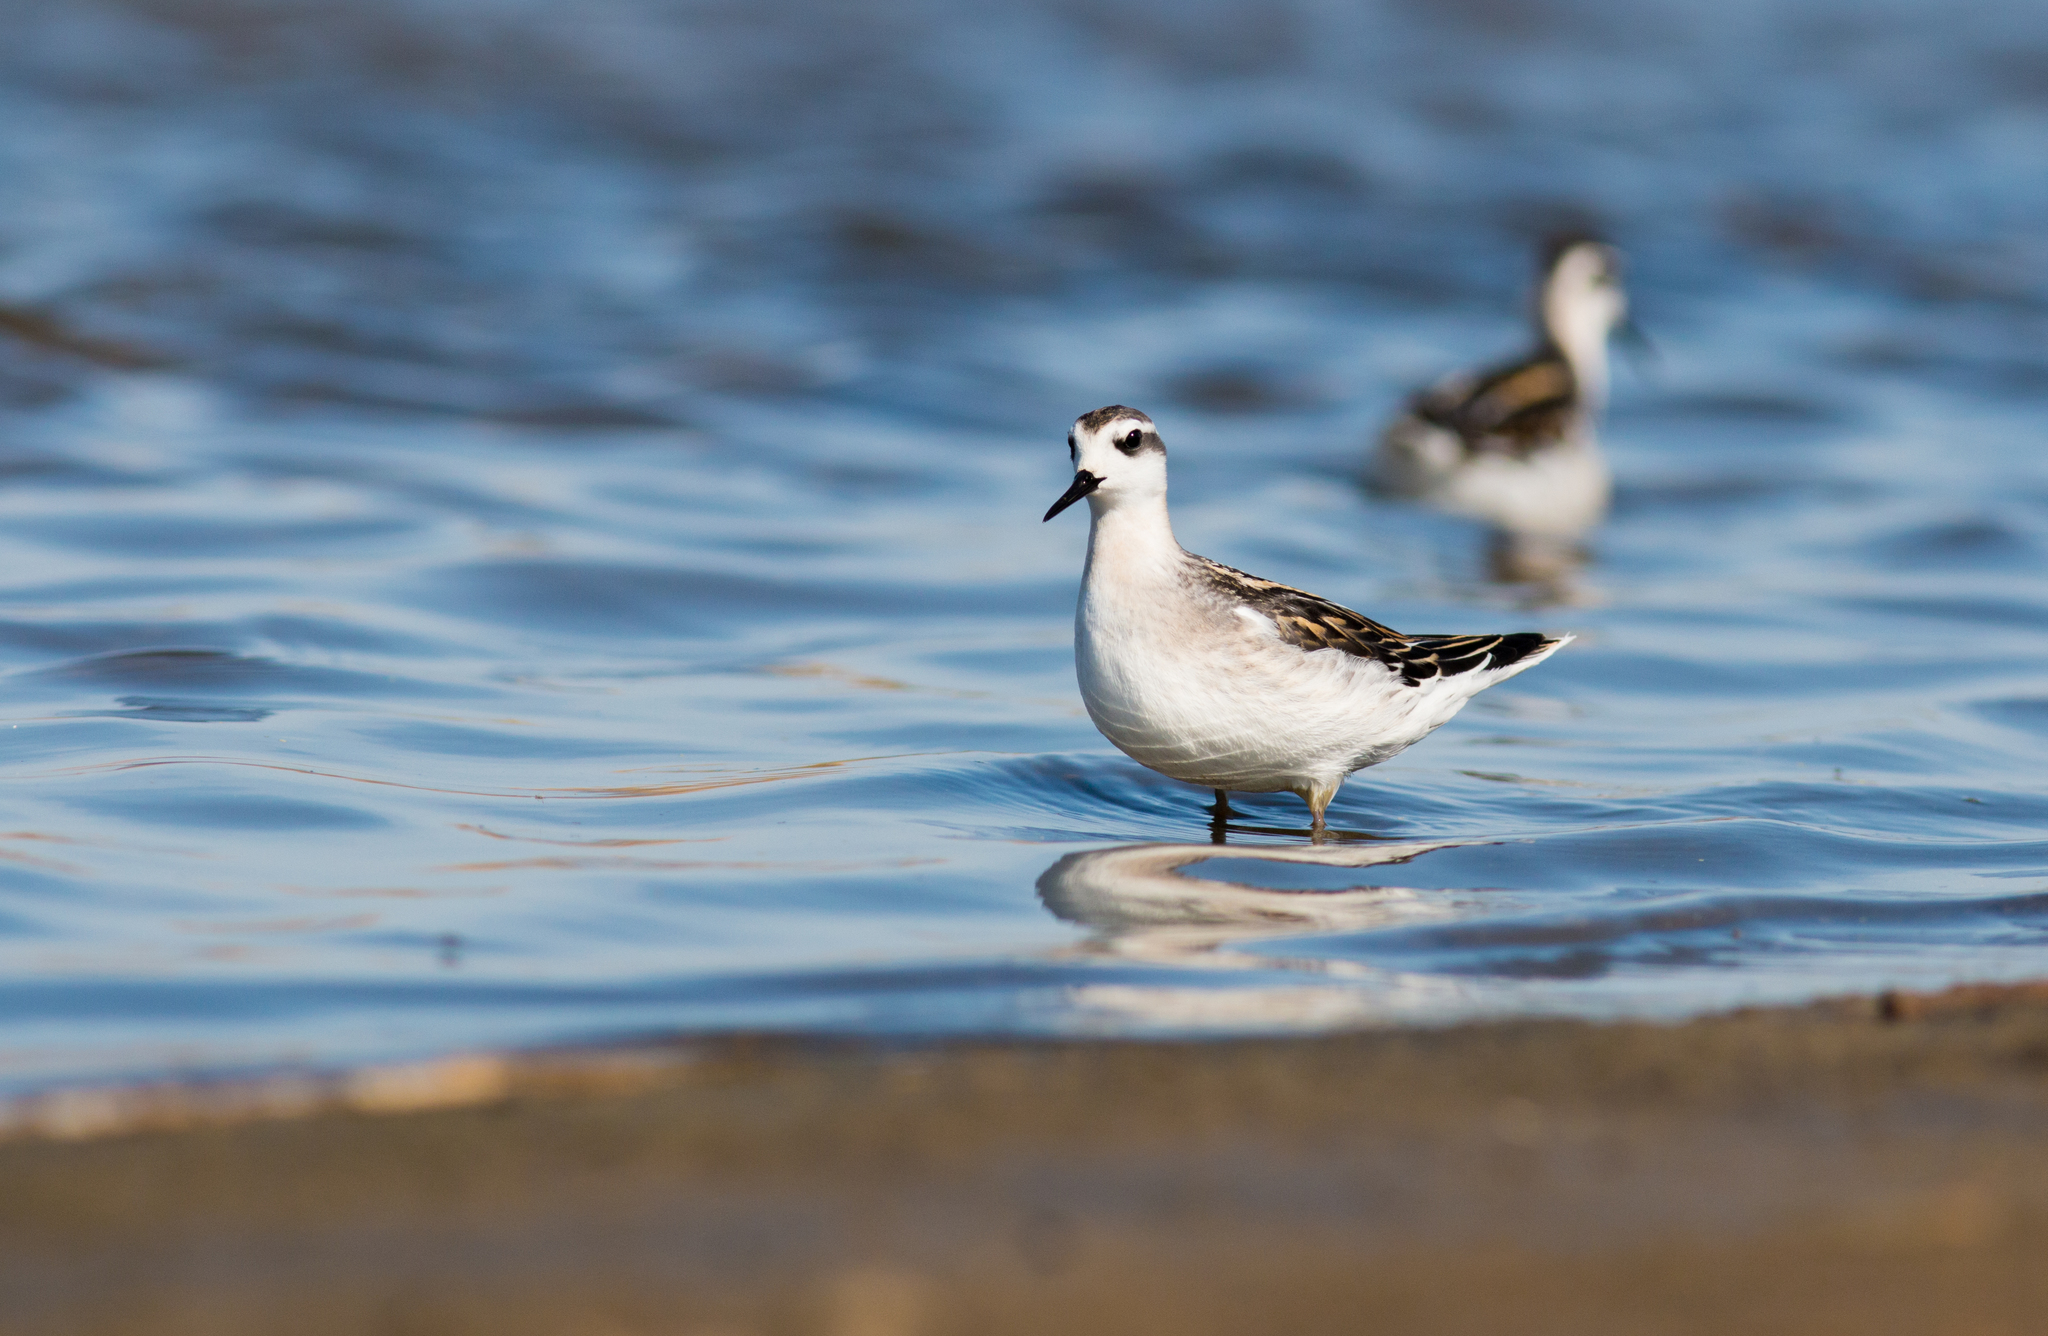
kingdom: Animalia
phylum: Chordata
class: Aves
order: Charadriiformes
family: Scolopacidae
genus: Phalaropus
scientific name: Phalaropus lobatus
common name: Red-necked phalarope
